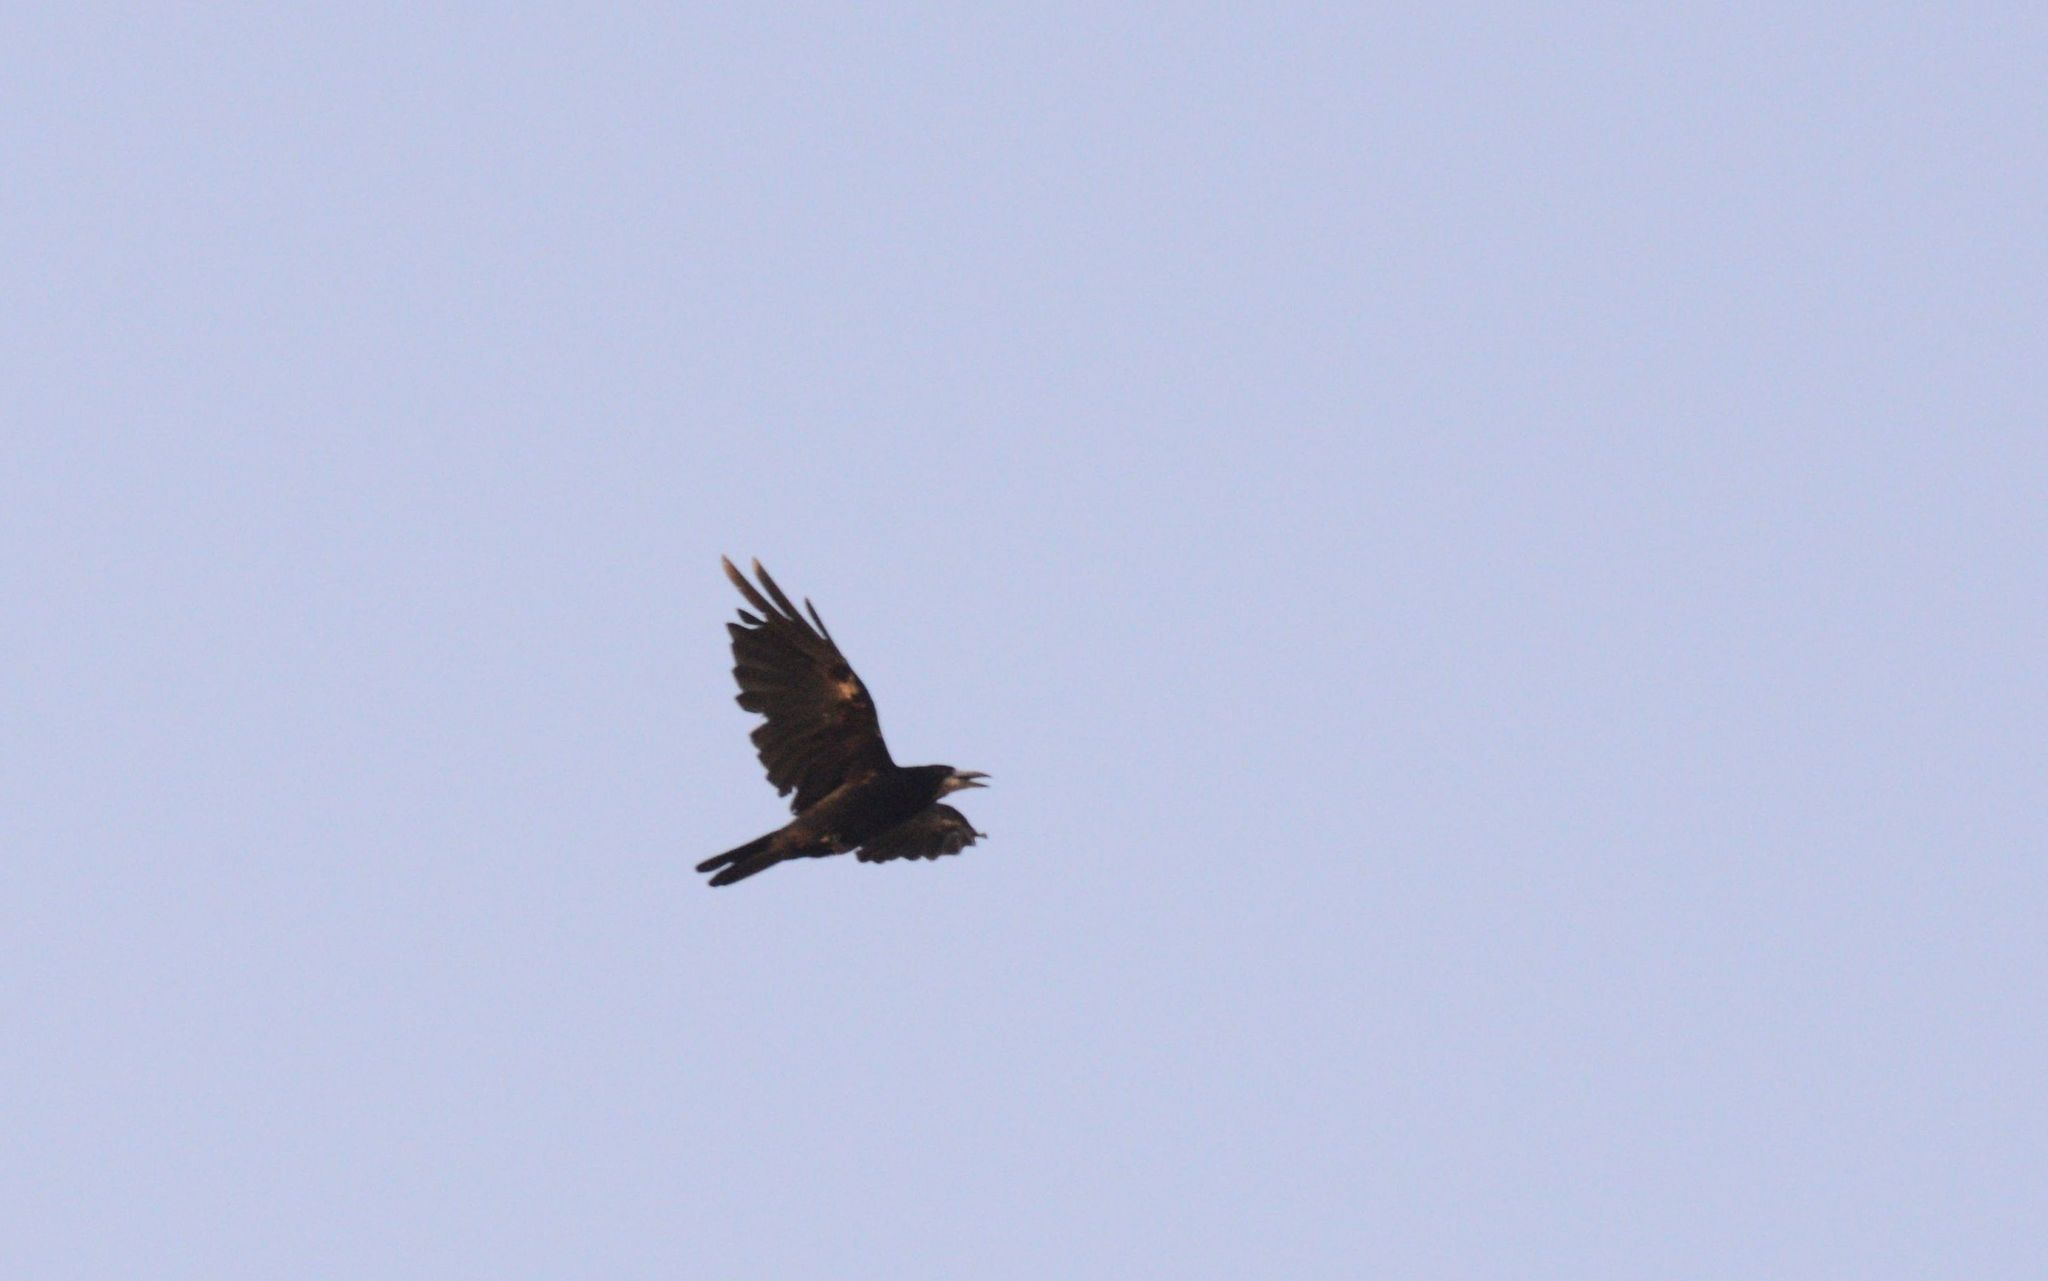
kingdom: Animalia
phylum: Chordata
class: Aves
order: Passeriformes
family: Corvidae
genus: Corvus
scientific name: Corvus frugilegus
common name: Rook
